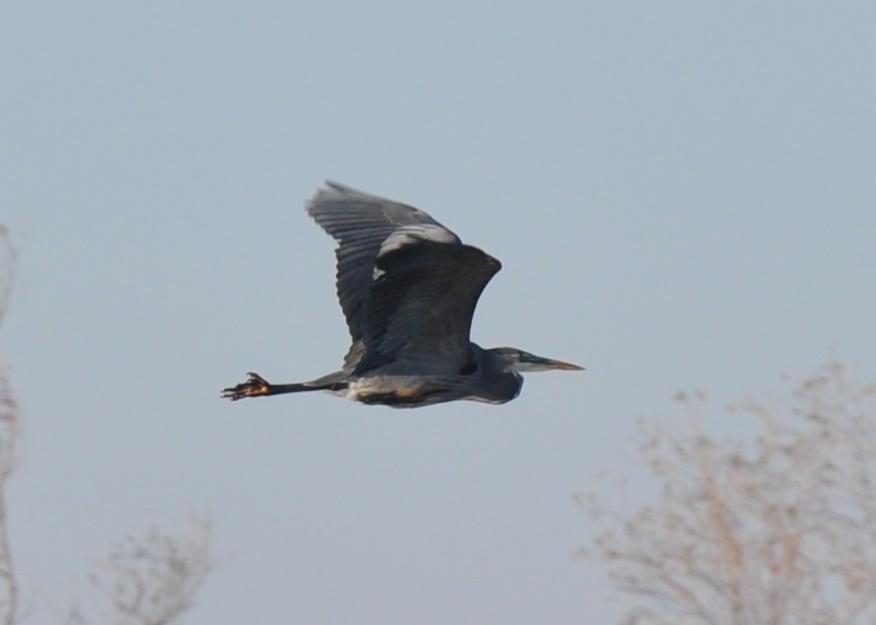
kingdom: Animalia
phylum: Chordata
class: Aves
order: Pelecaniformes
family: Ardeidae
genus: Ardea
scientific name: Ardea herodias
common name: Great blue heron
